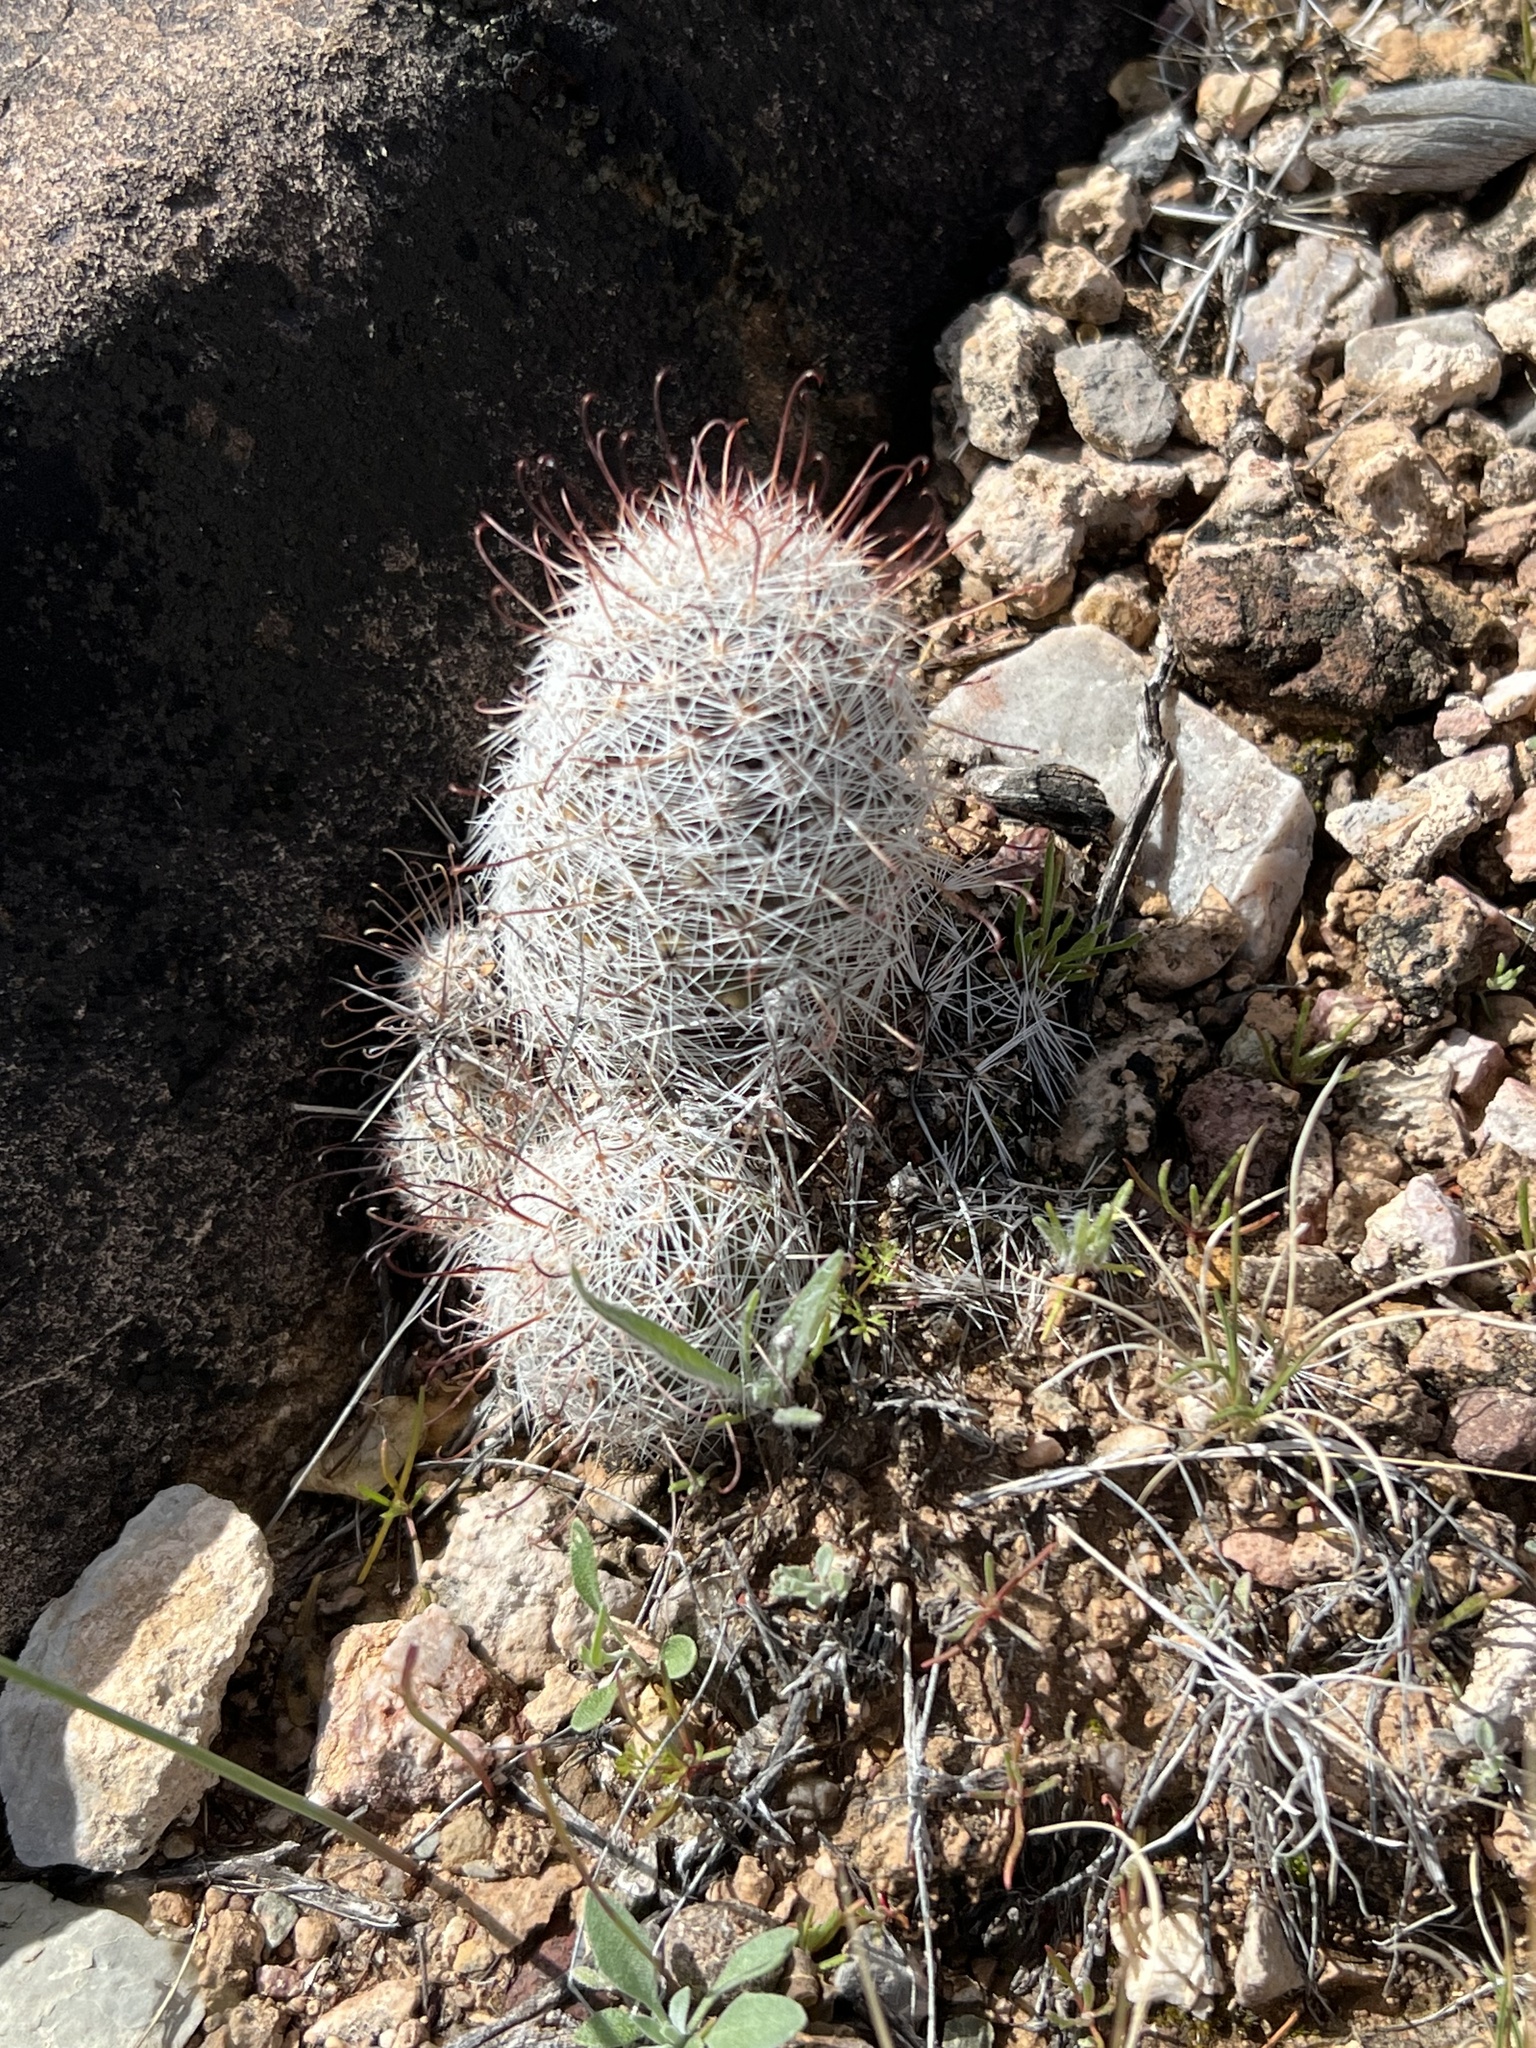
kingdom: Plantae
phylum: Tracheophyta
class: Magnoliopsida
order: Caryophyllales
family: Cactaceae
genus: Cochemiea
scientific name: Cochemiea grahamii
